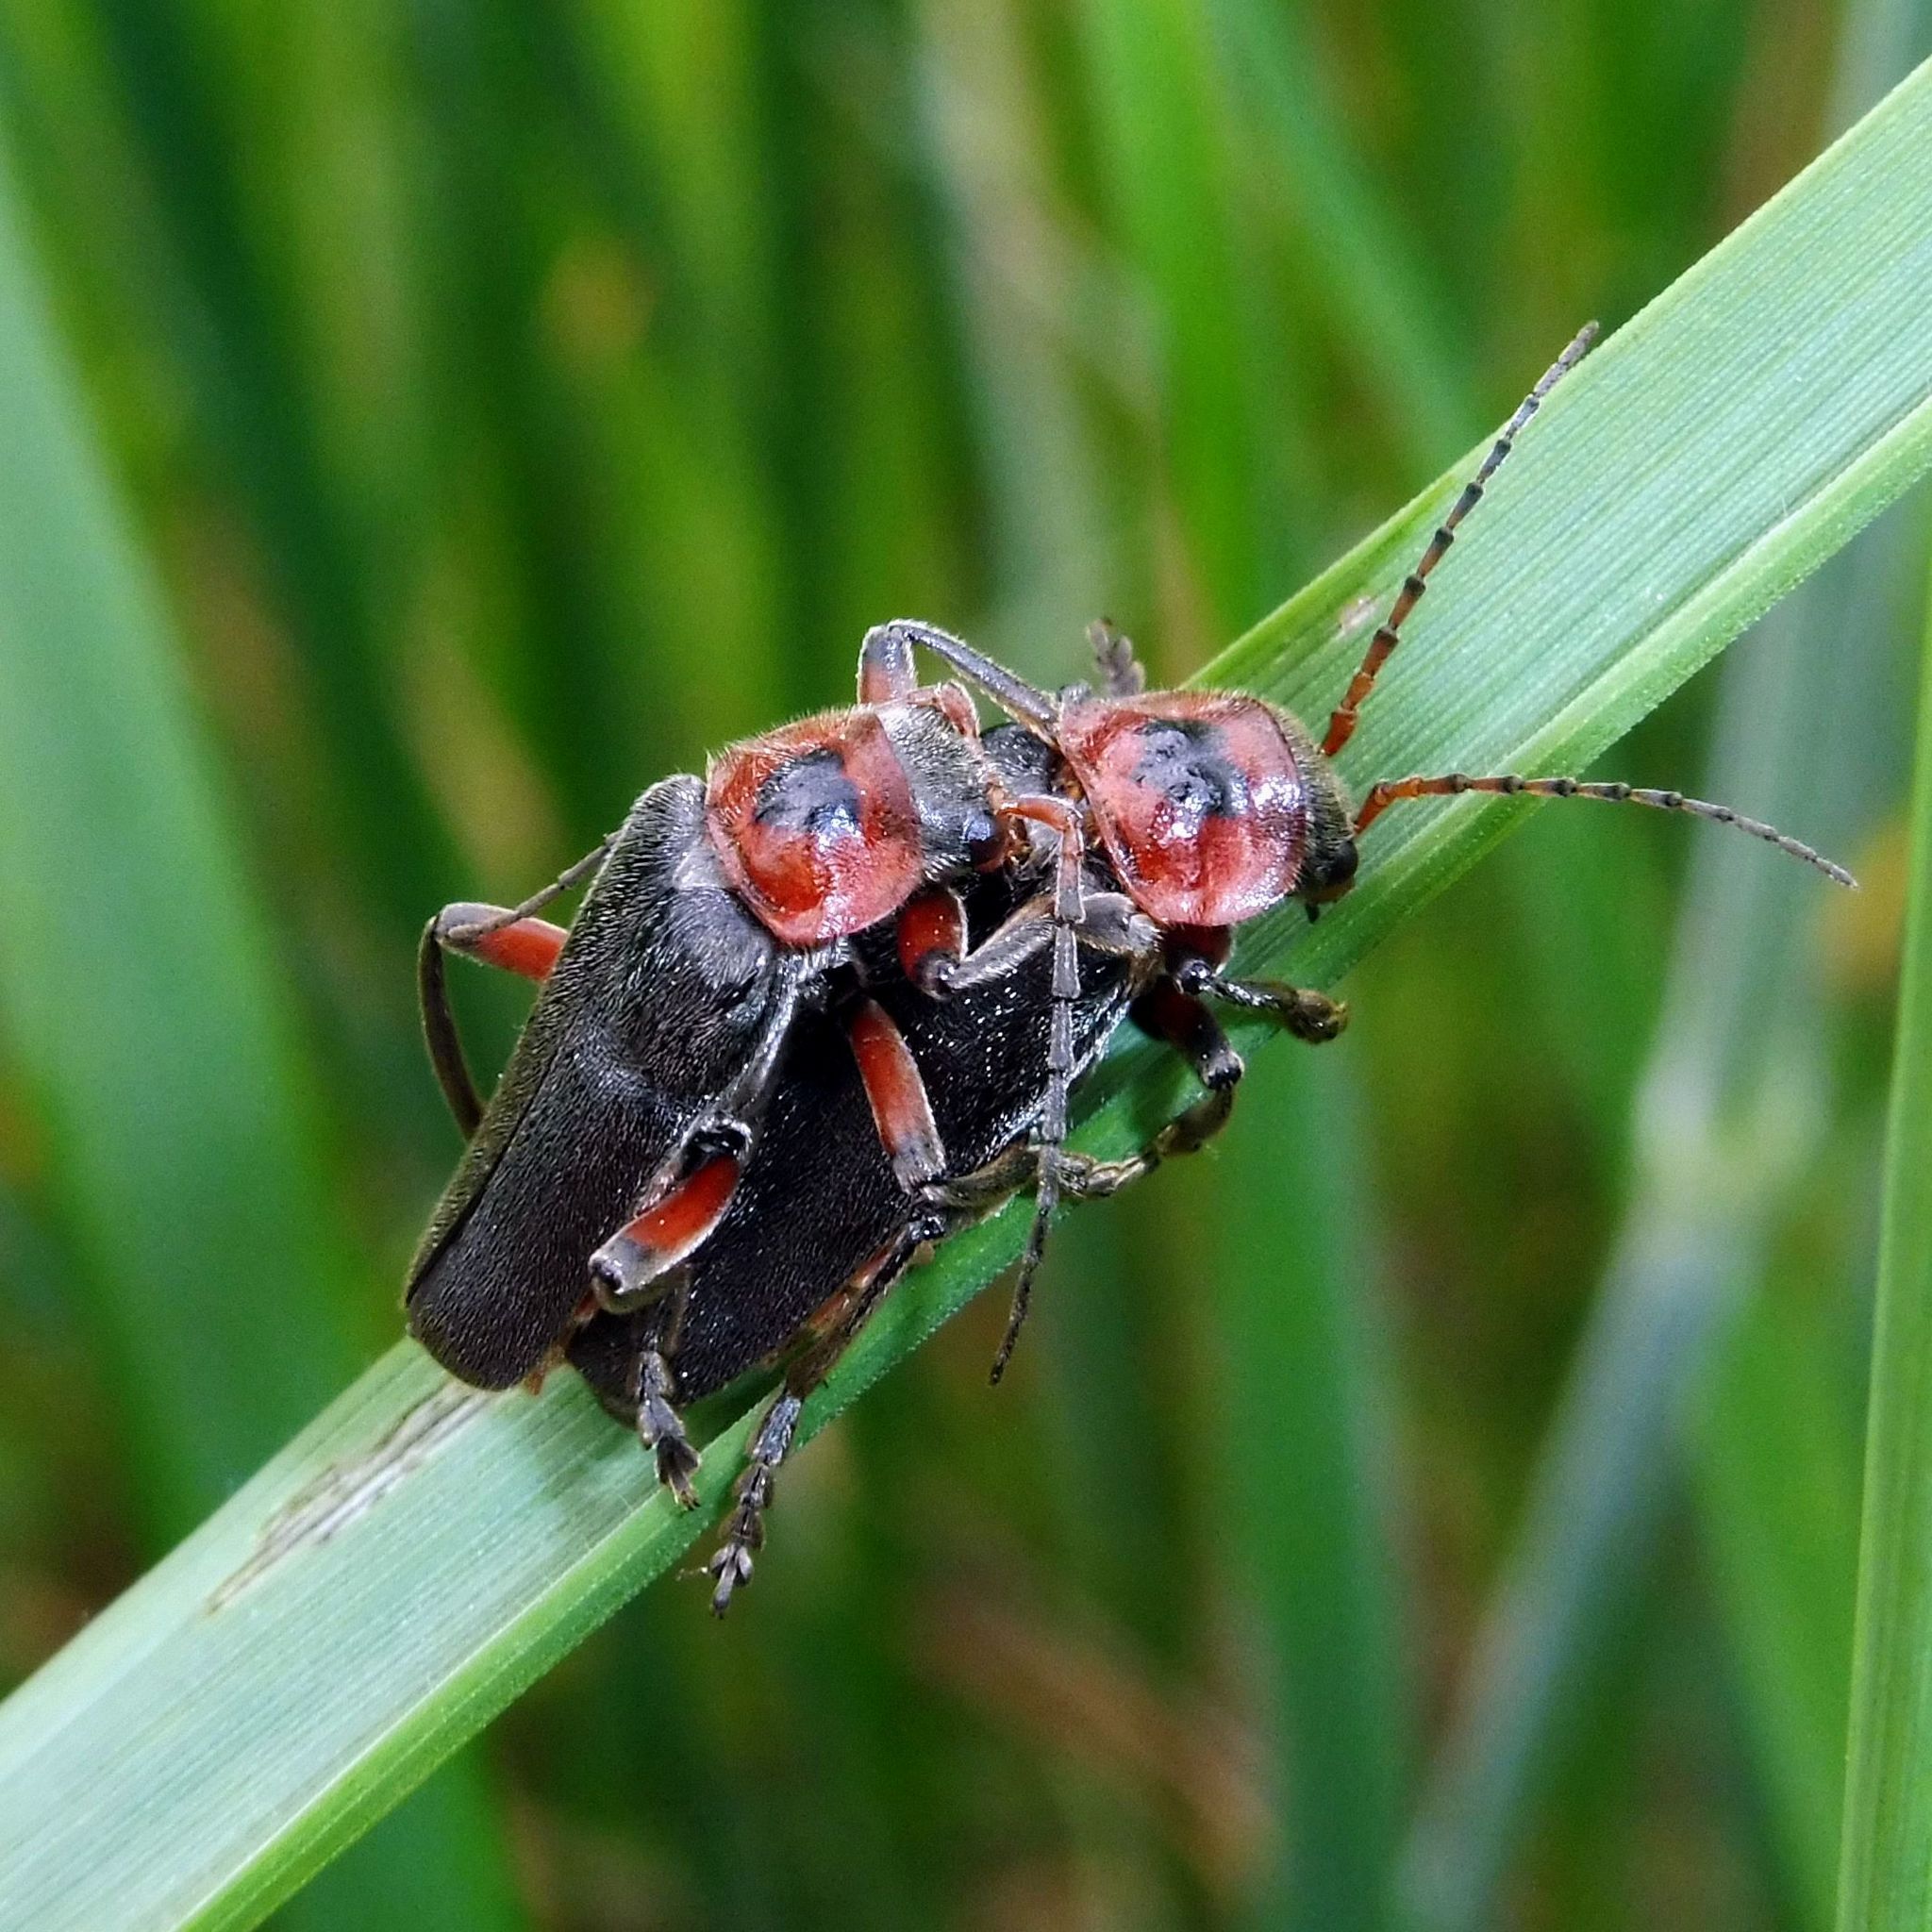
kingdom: Animalia
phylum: Arthropoda
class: Insecta
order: Coleoptera
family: Cantharidae
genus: Cantharis
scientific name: Cantharis rustica
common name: Soldier beetle
